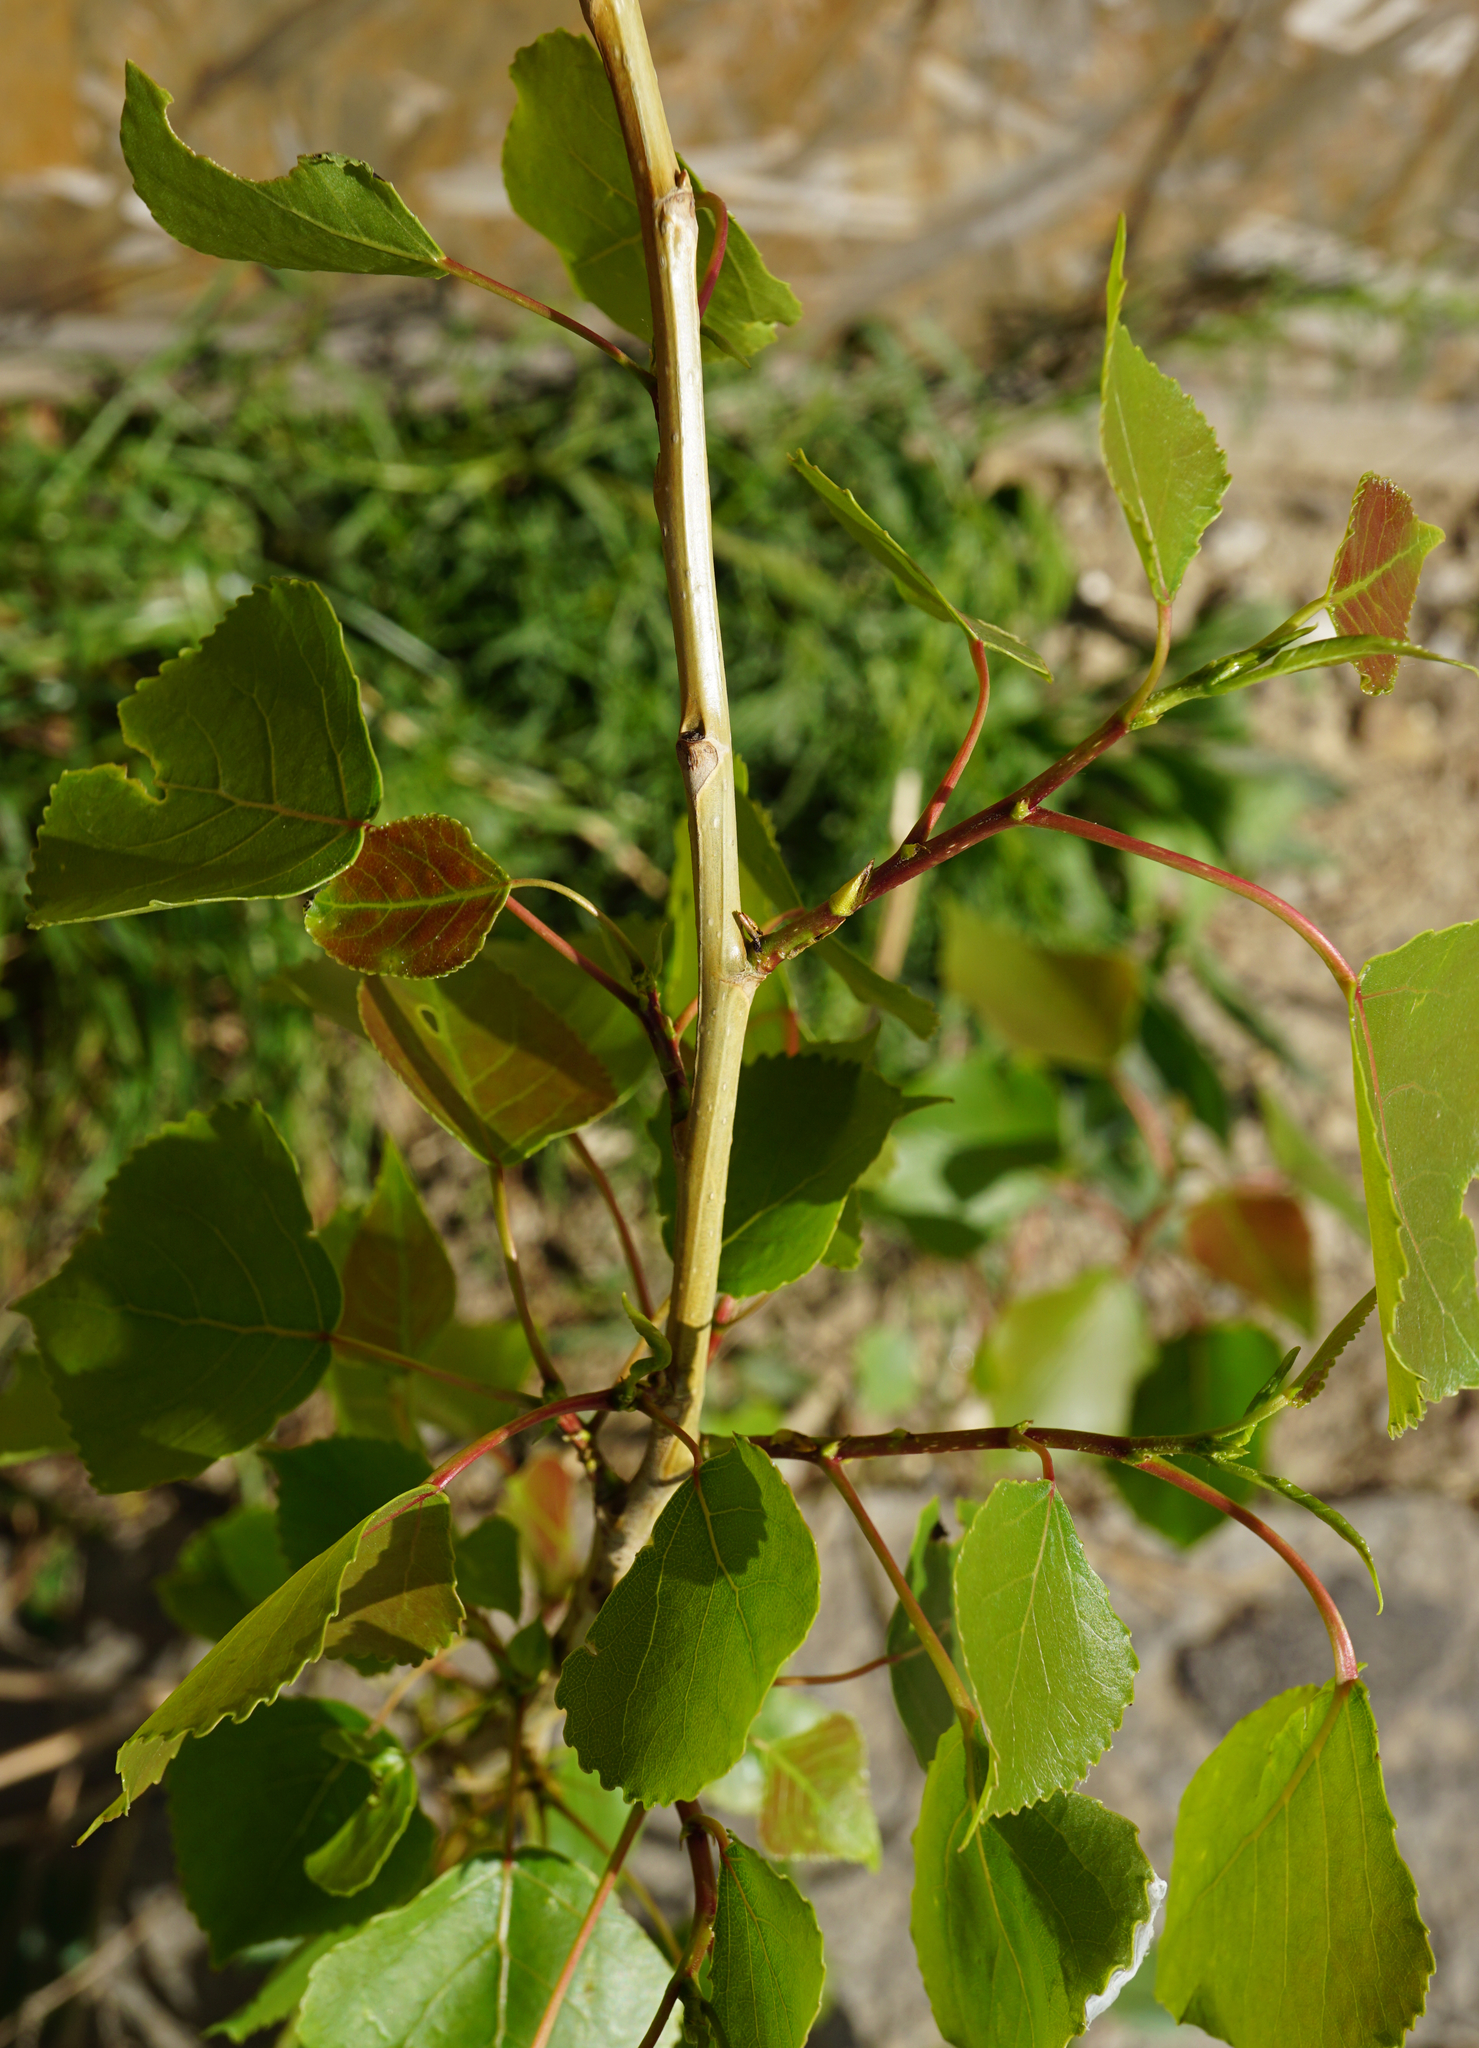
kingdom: Plantae
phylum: Tracheophyta
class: Magnoliopsida
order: Malpighiales
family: Salicaceae
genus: Populus
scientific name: Populus nigra
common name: Black poplar
